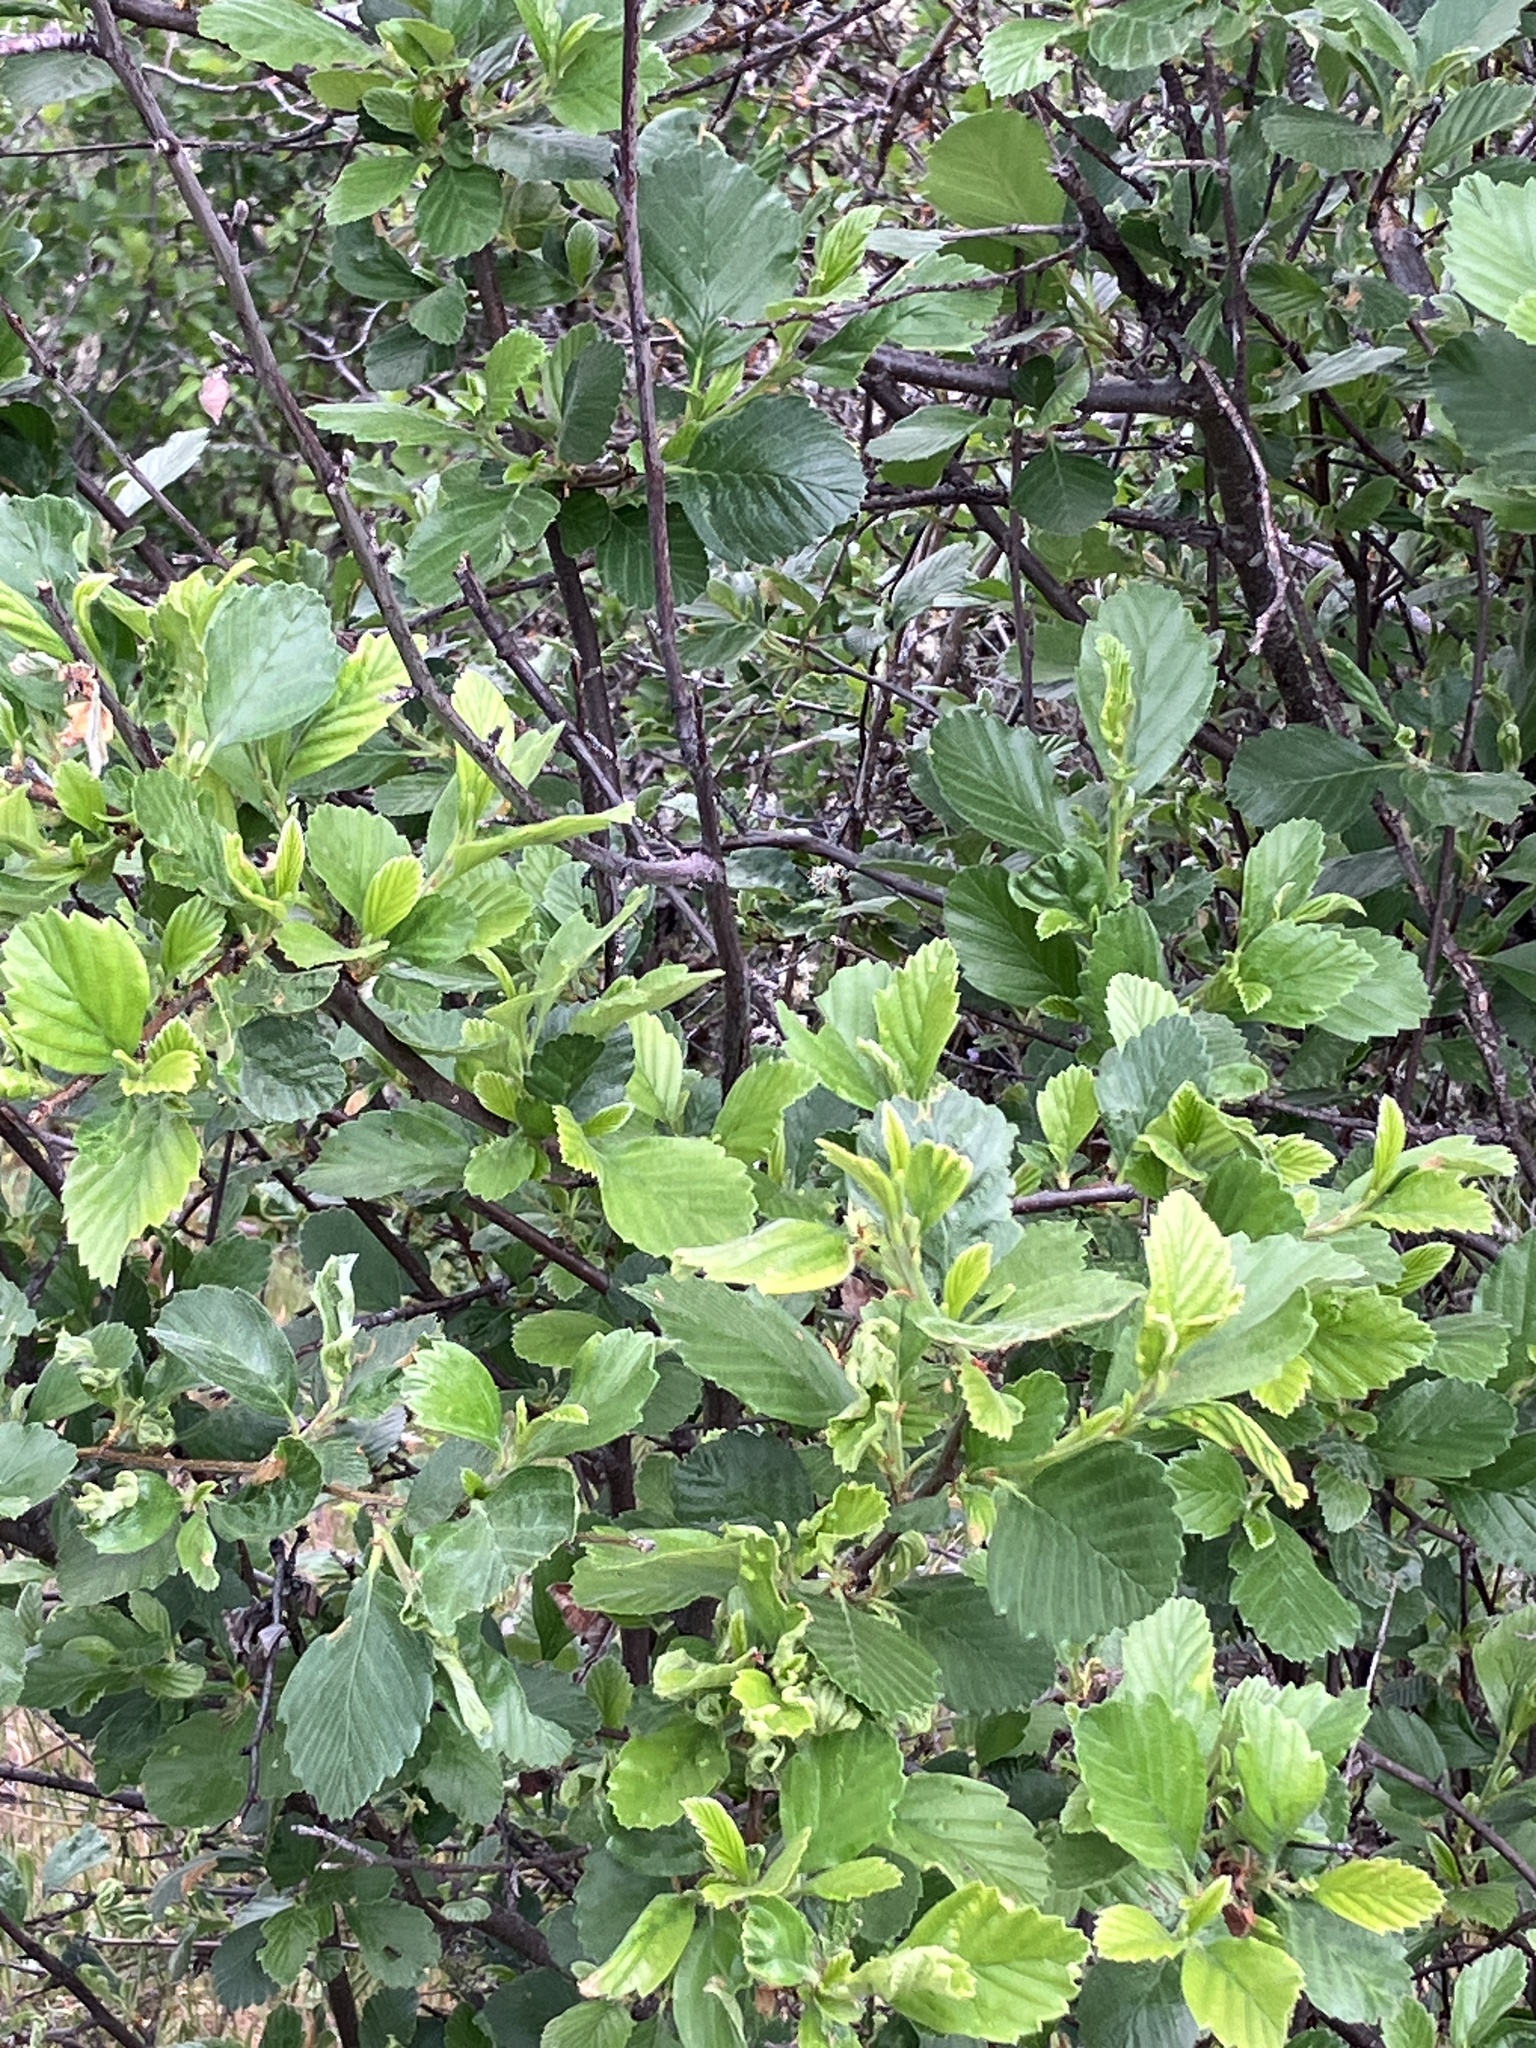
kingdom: Plantae
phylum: Tracheophyta
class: Magnoliopsida
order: Rosales
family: Rosaceae
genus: Cercocarpus
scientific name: Cercocarpus betuloides
